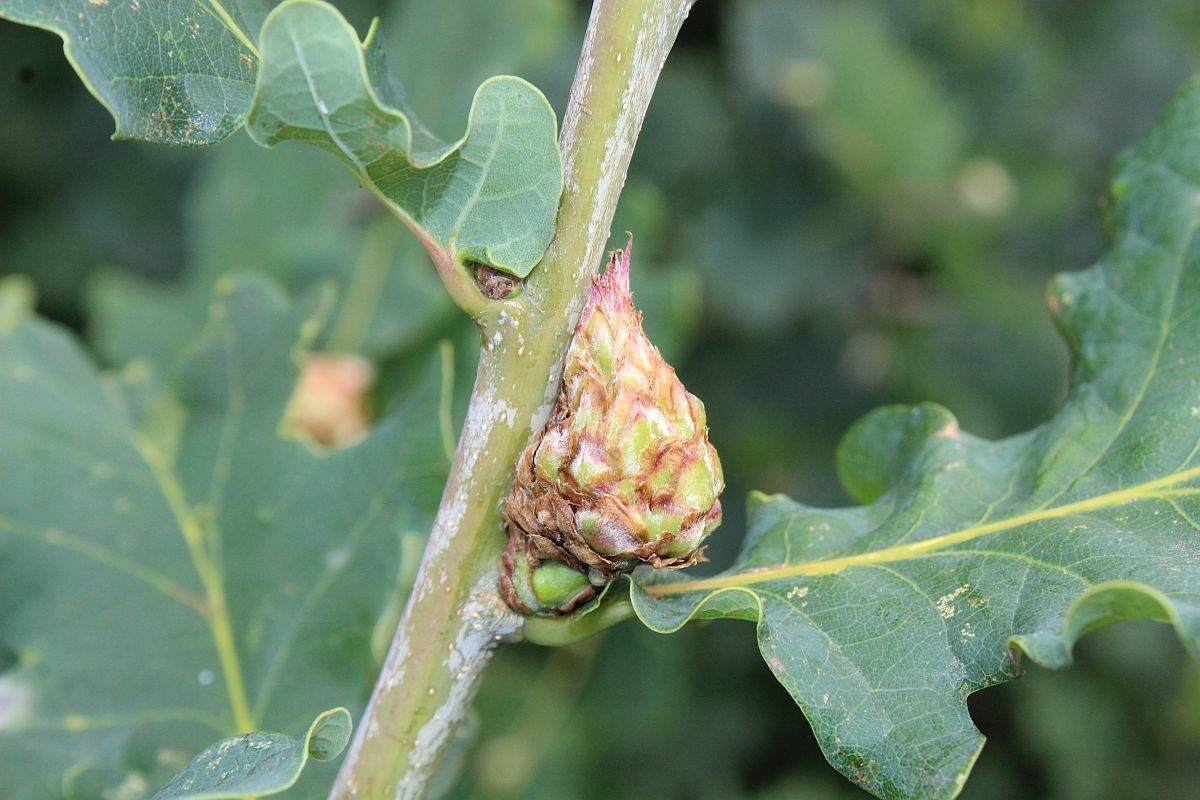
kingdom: Animalia
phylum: Arthropoda
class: Insecta
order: Hymenoptera
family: Cynipidae
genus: Andricus
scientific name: Andricus foecundatrix
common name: Artichoke gall
